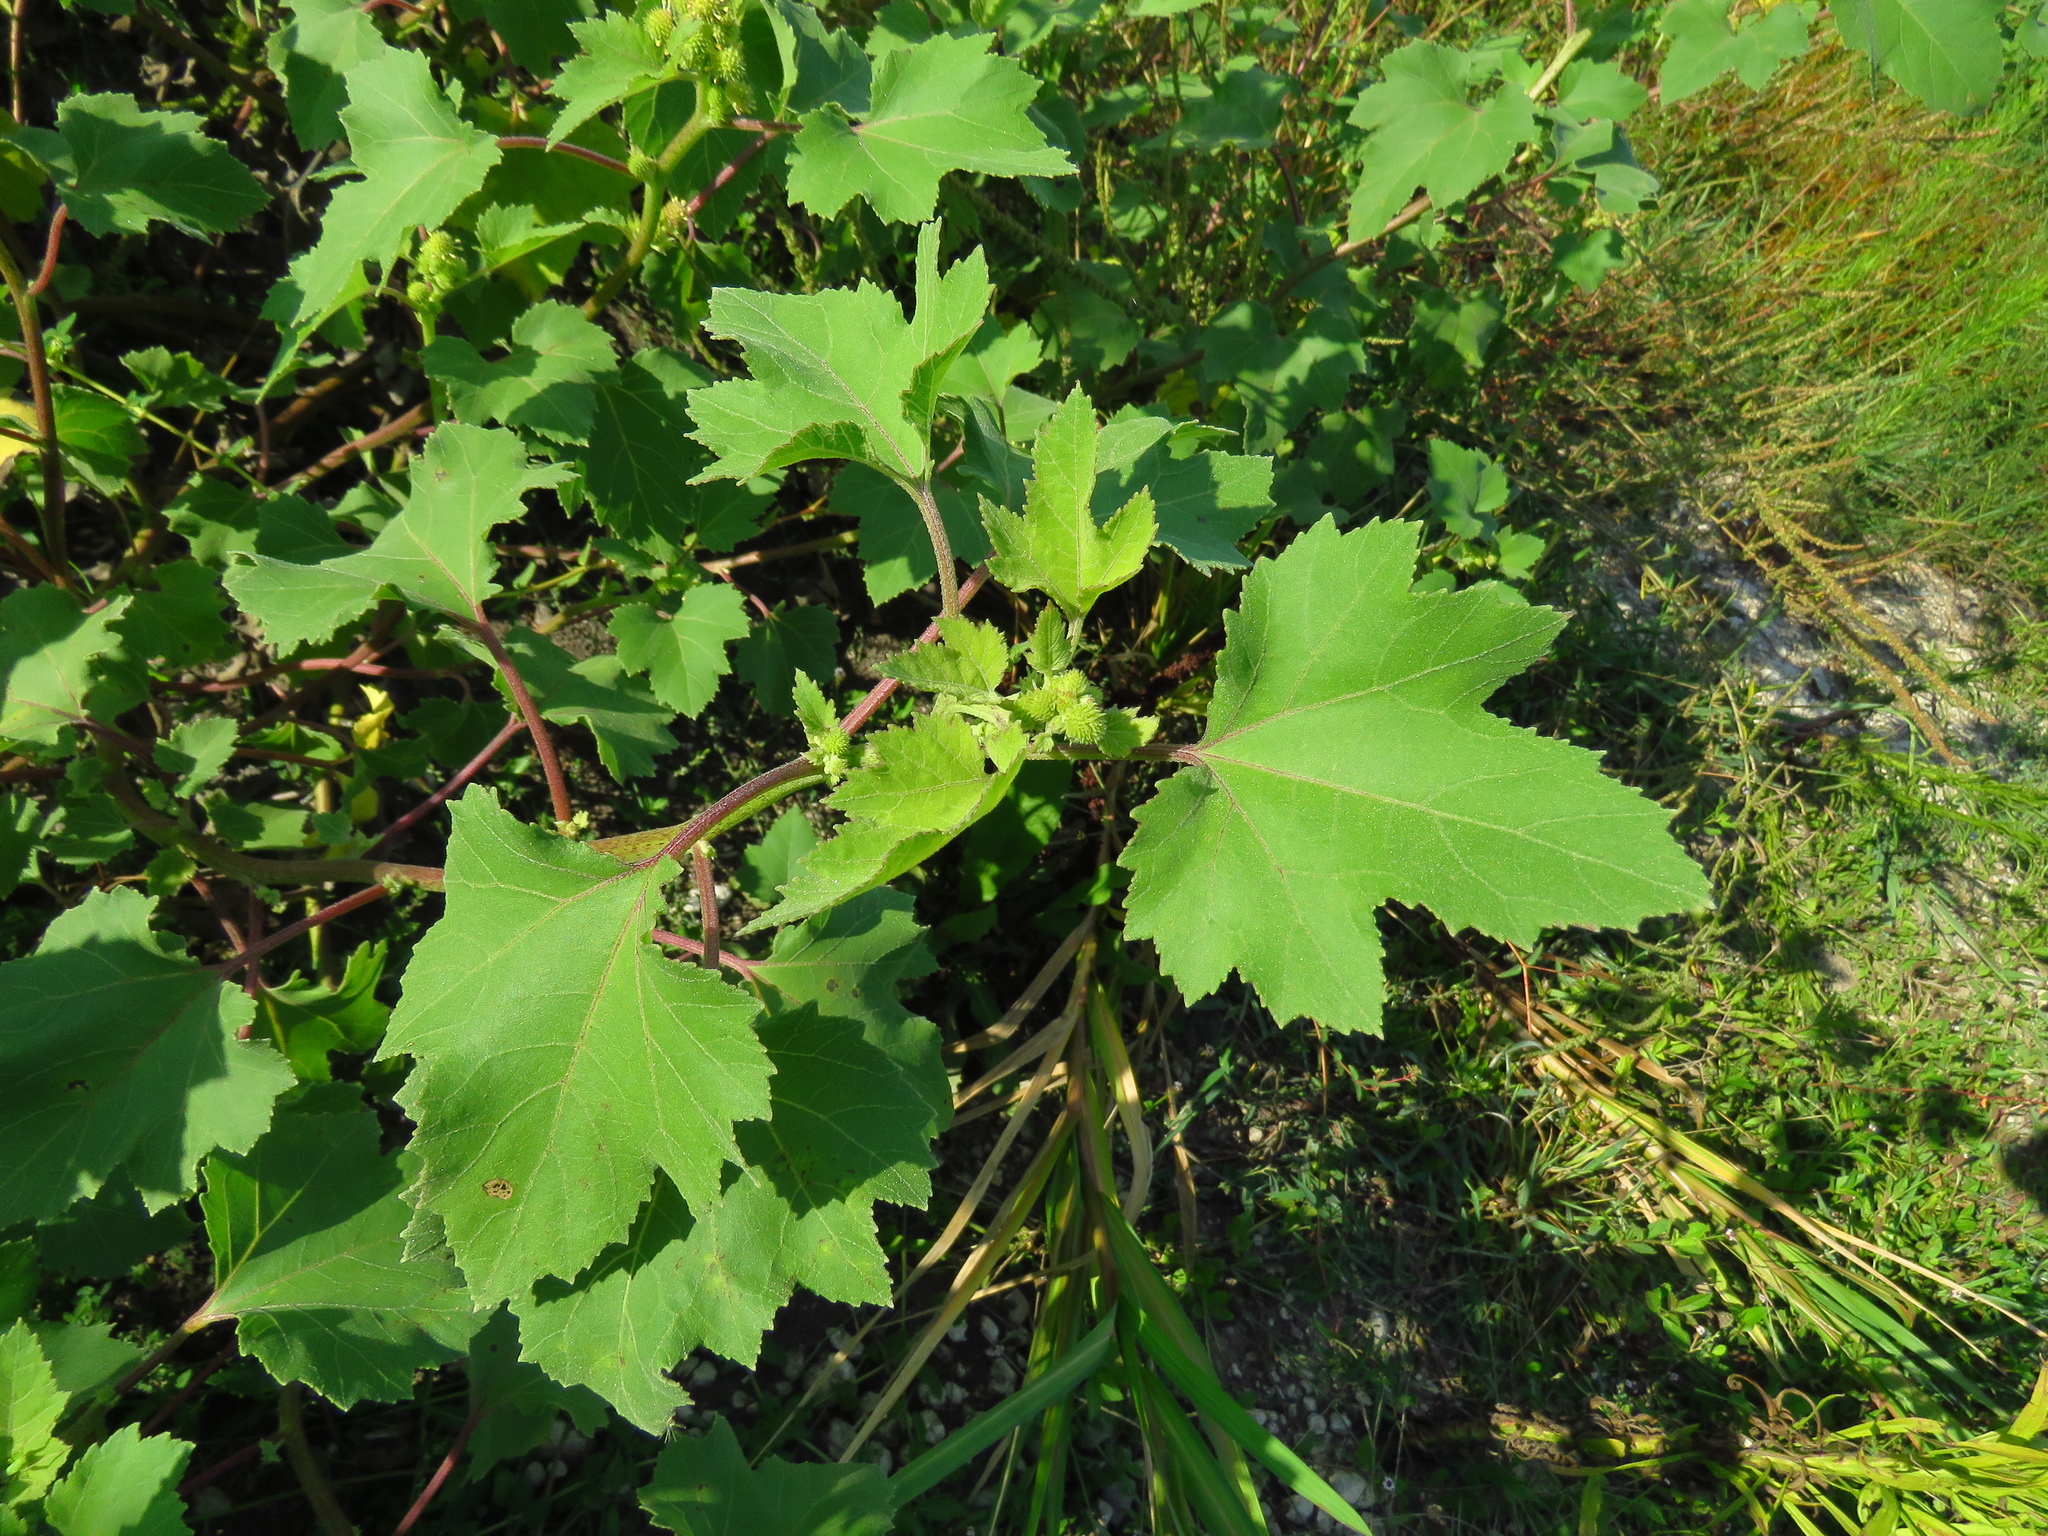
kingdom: Plantae
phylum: Tracheophyta
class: Magnoliopsida
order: Asterales
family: Asteraceae
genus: Xanthium
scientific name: Xanthium strumarium
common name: Rough cocklebur
